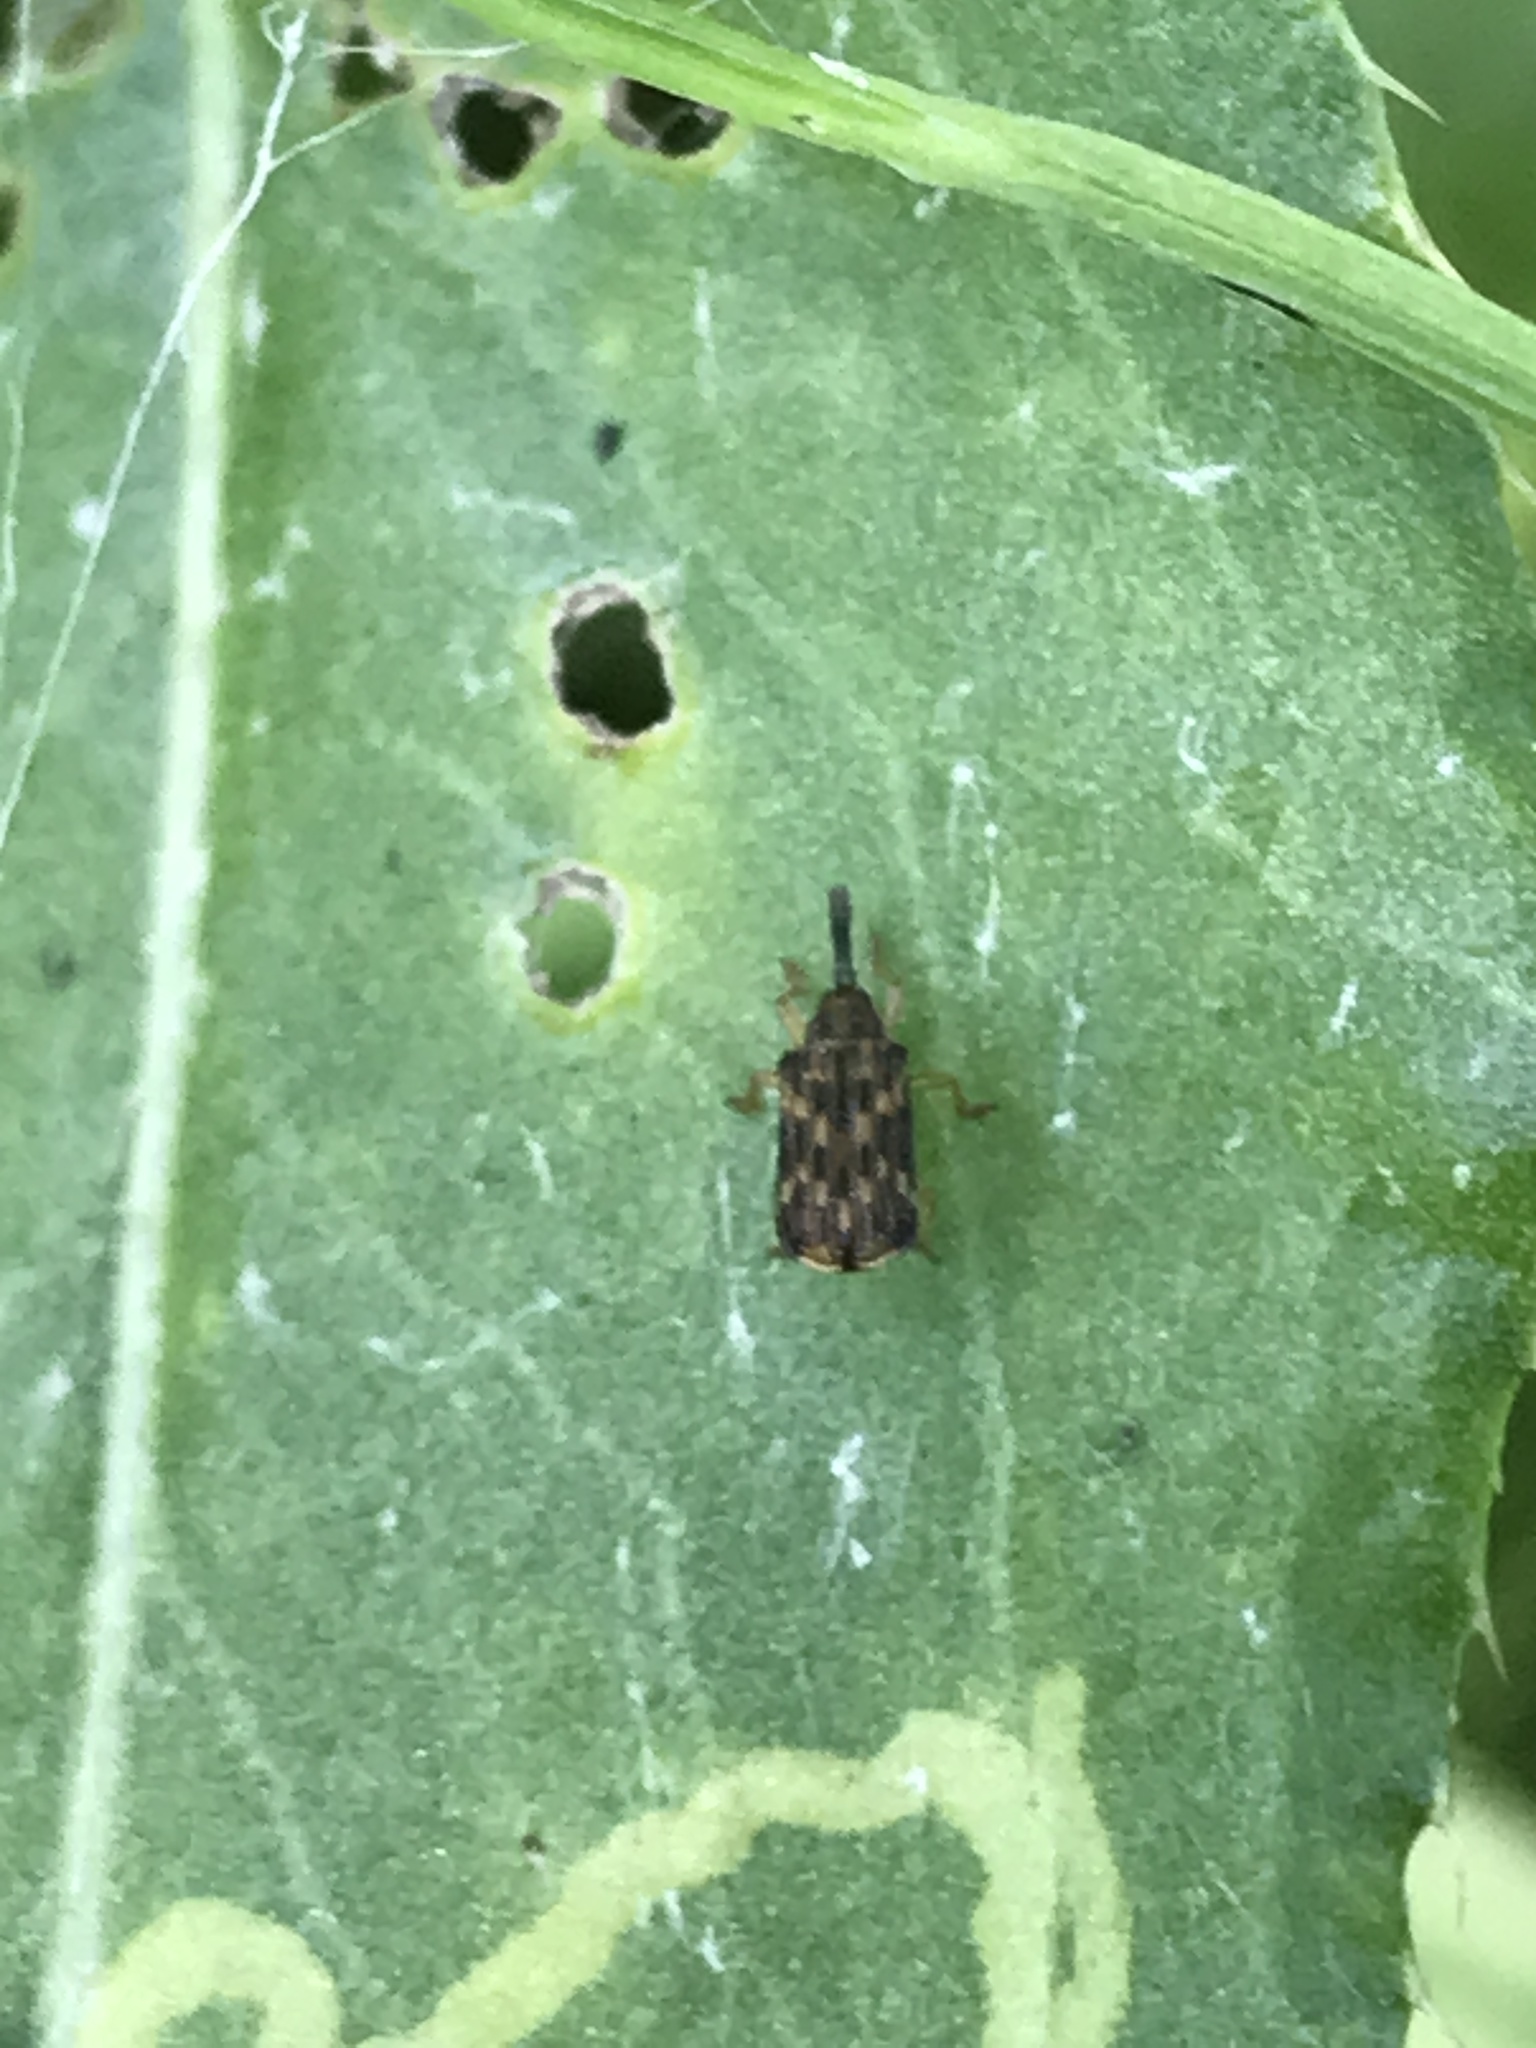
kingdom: Animalia
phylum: Arthropoda
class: Insecta
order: Coleoptera
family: Chrysomelidae
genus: Sumitrosis
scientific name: Sumitrosis inaequalis
